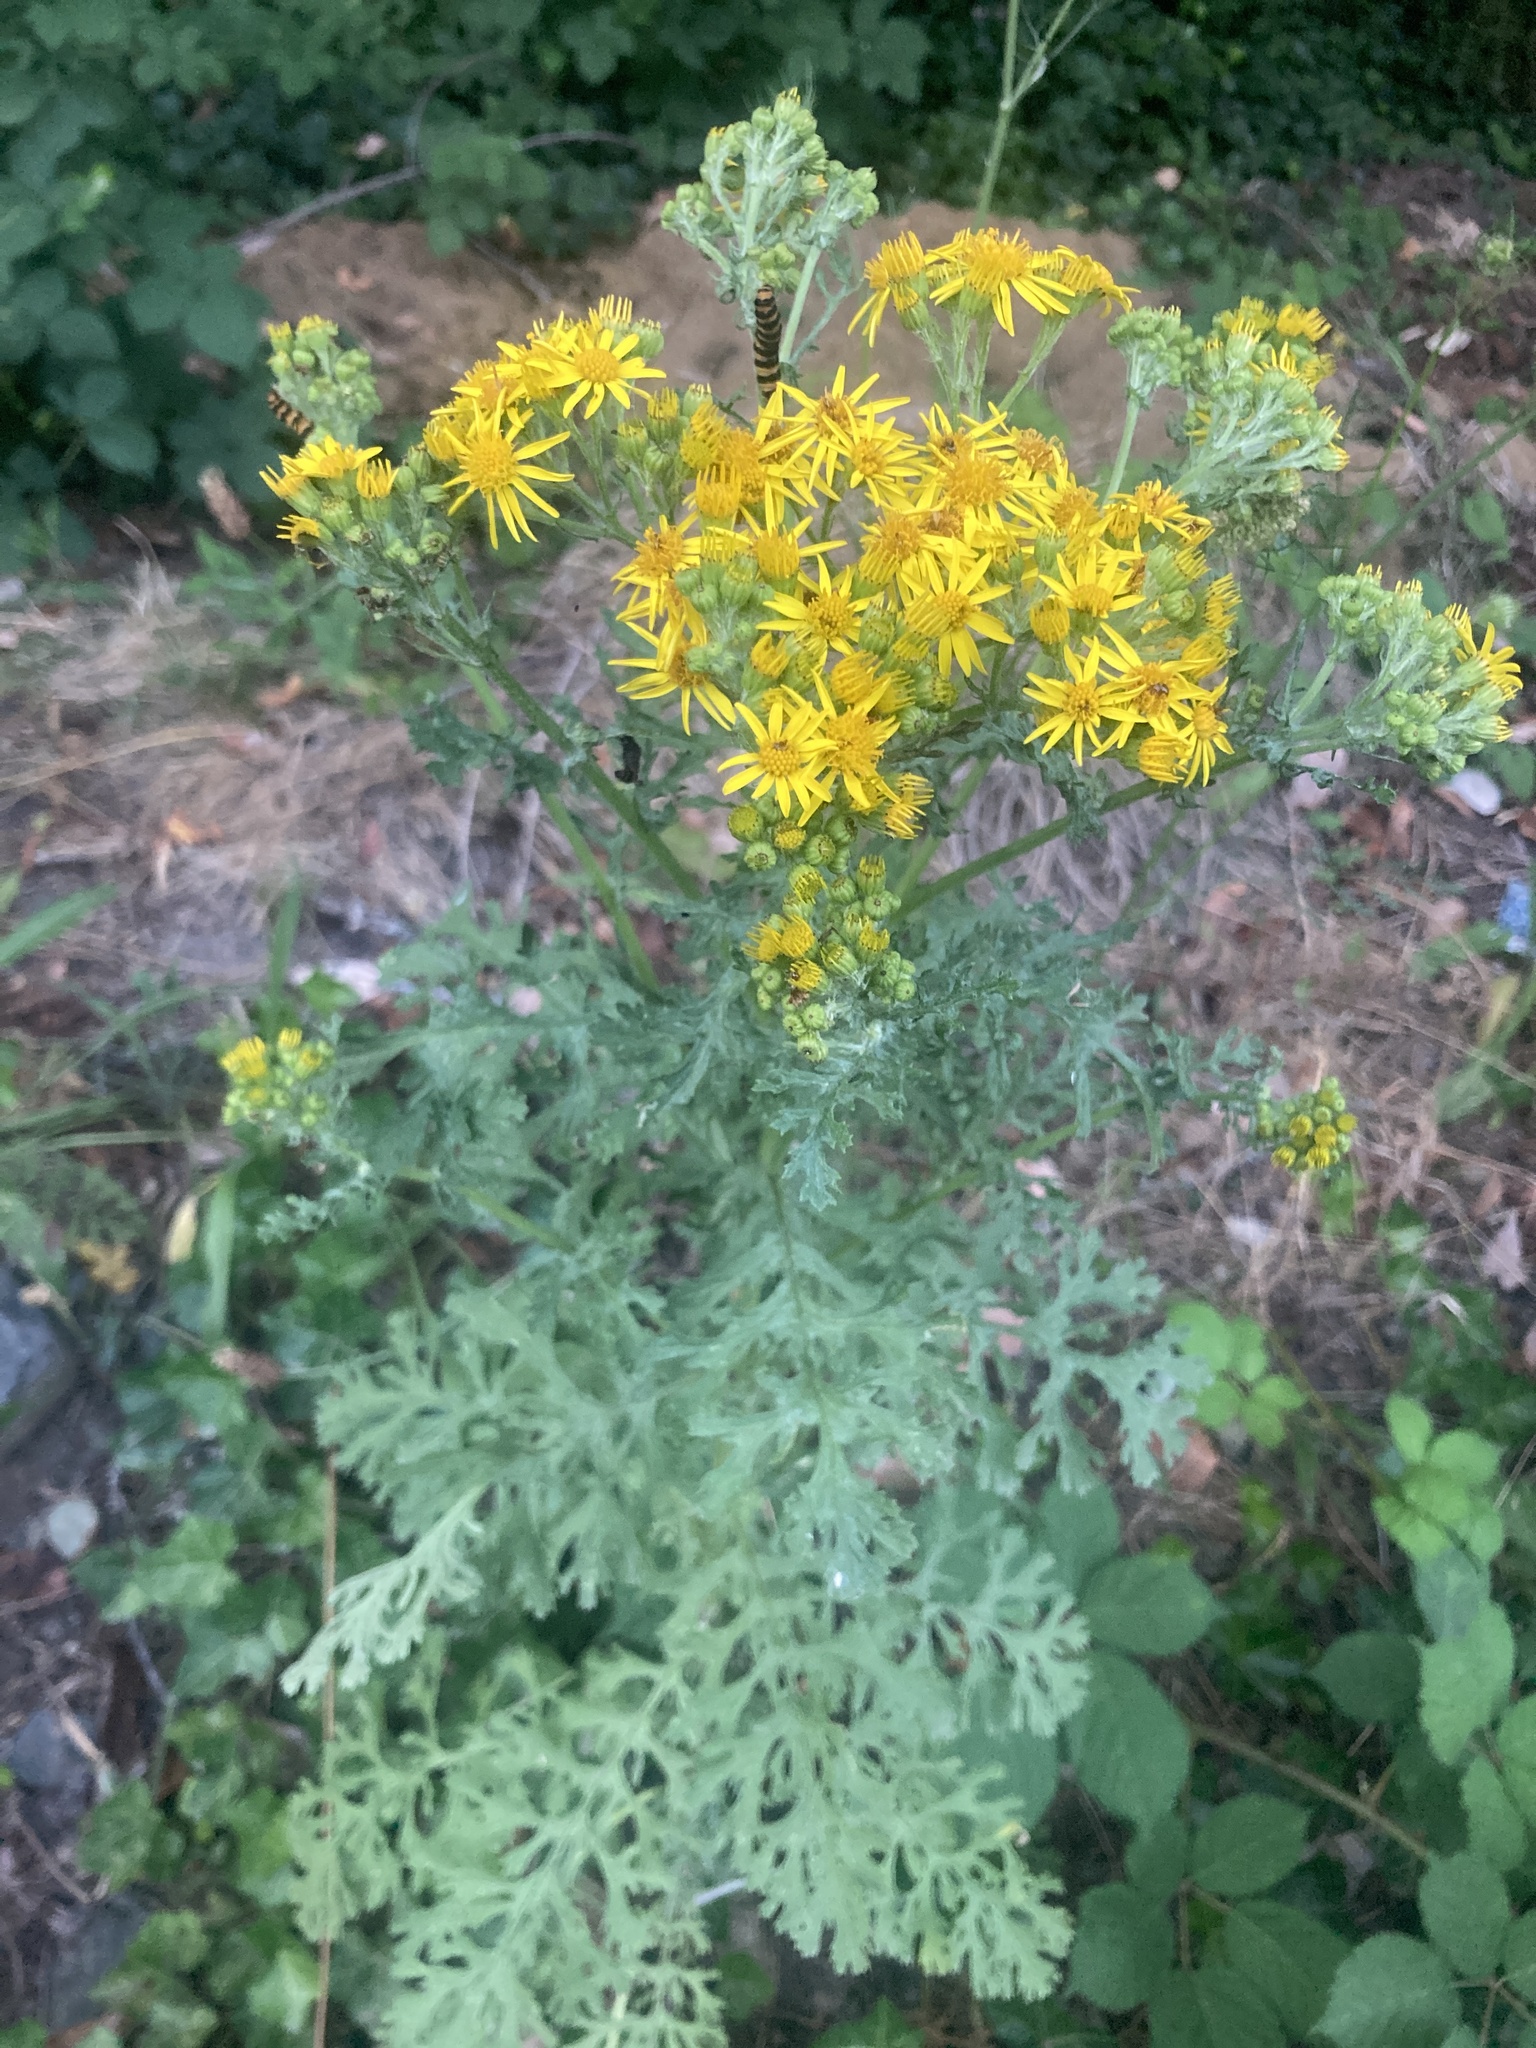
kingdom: Plantae
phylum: Tracheophyta
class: Magnoliopsida
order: Asterales
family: Asteraceae
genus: Jacobaea
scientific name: Jacobaea vulgaris
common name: Stinking willie
